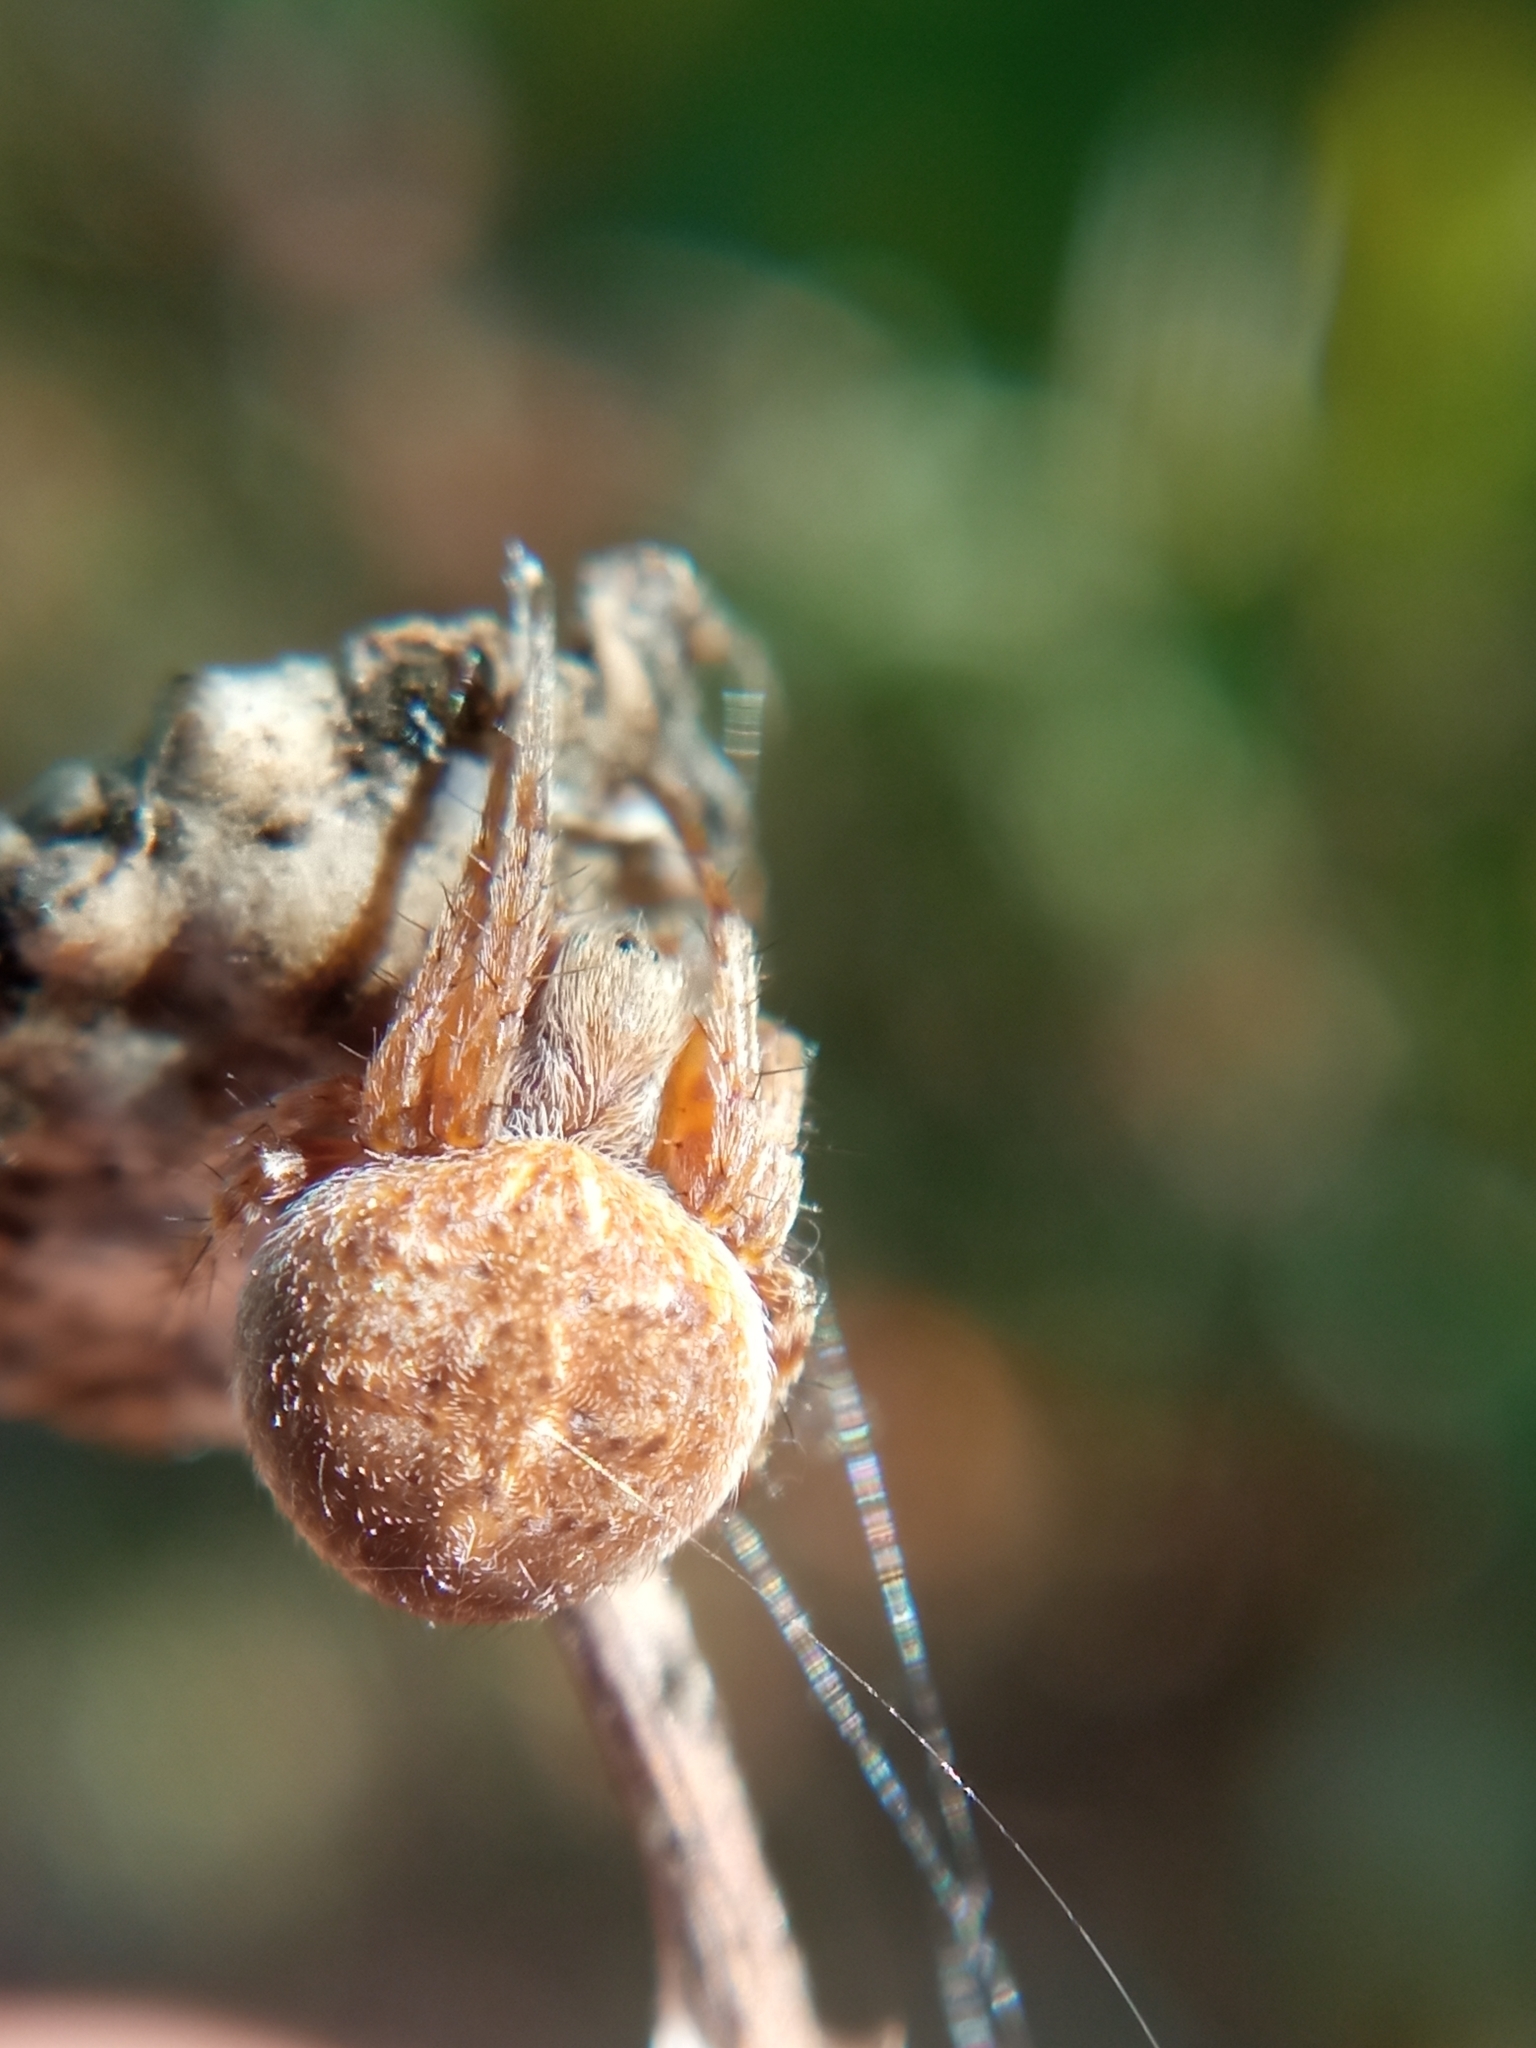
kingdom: Animalia
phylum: Arthropoda
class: Arachnida
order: Araneae
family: Araneidae
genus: Agalenatea
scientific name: Agalenatea redii
